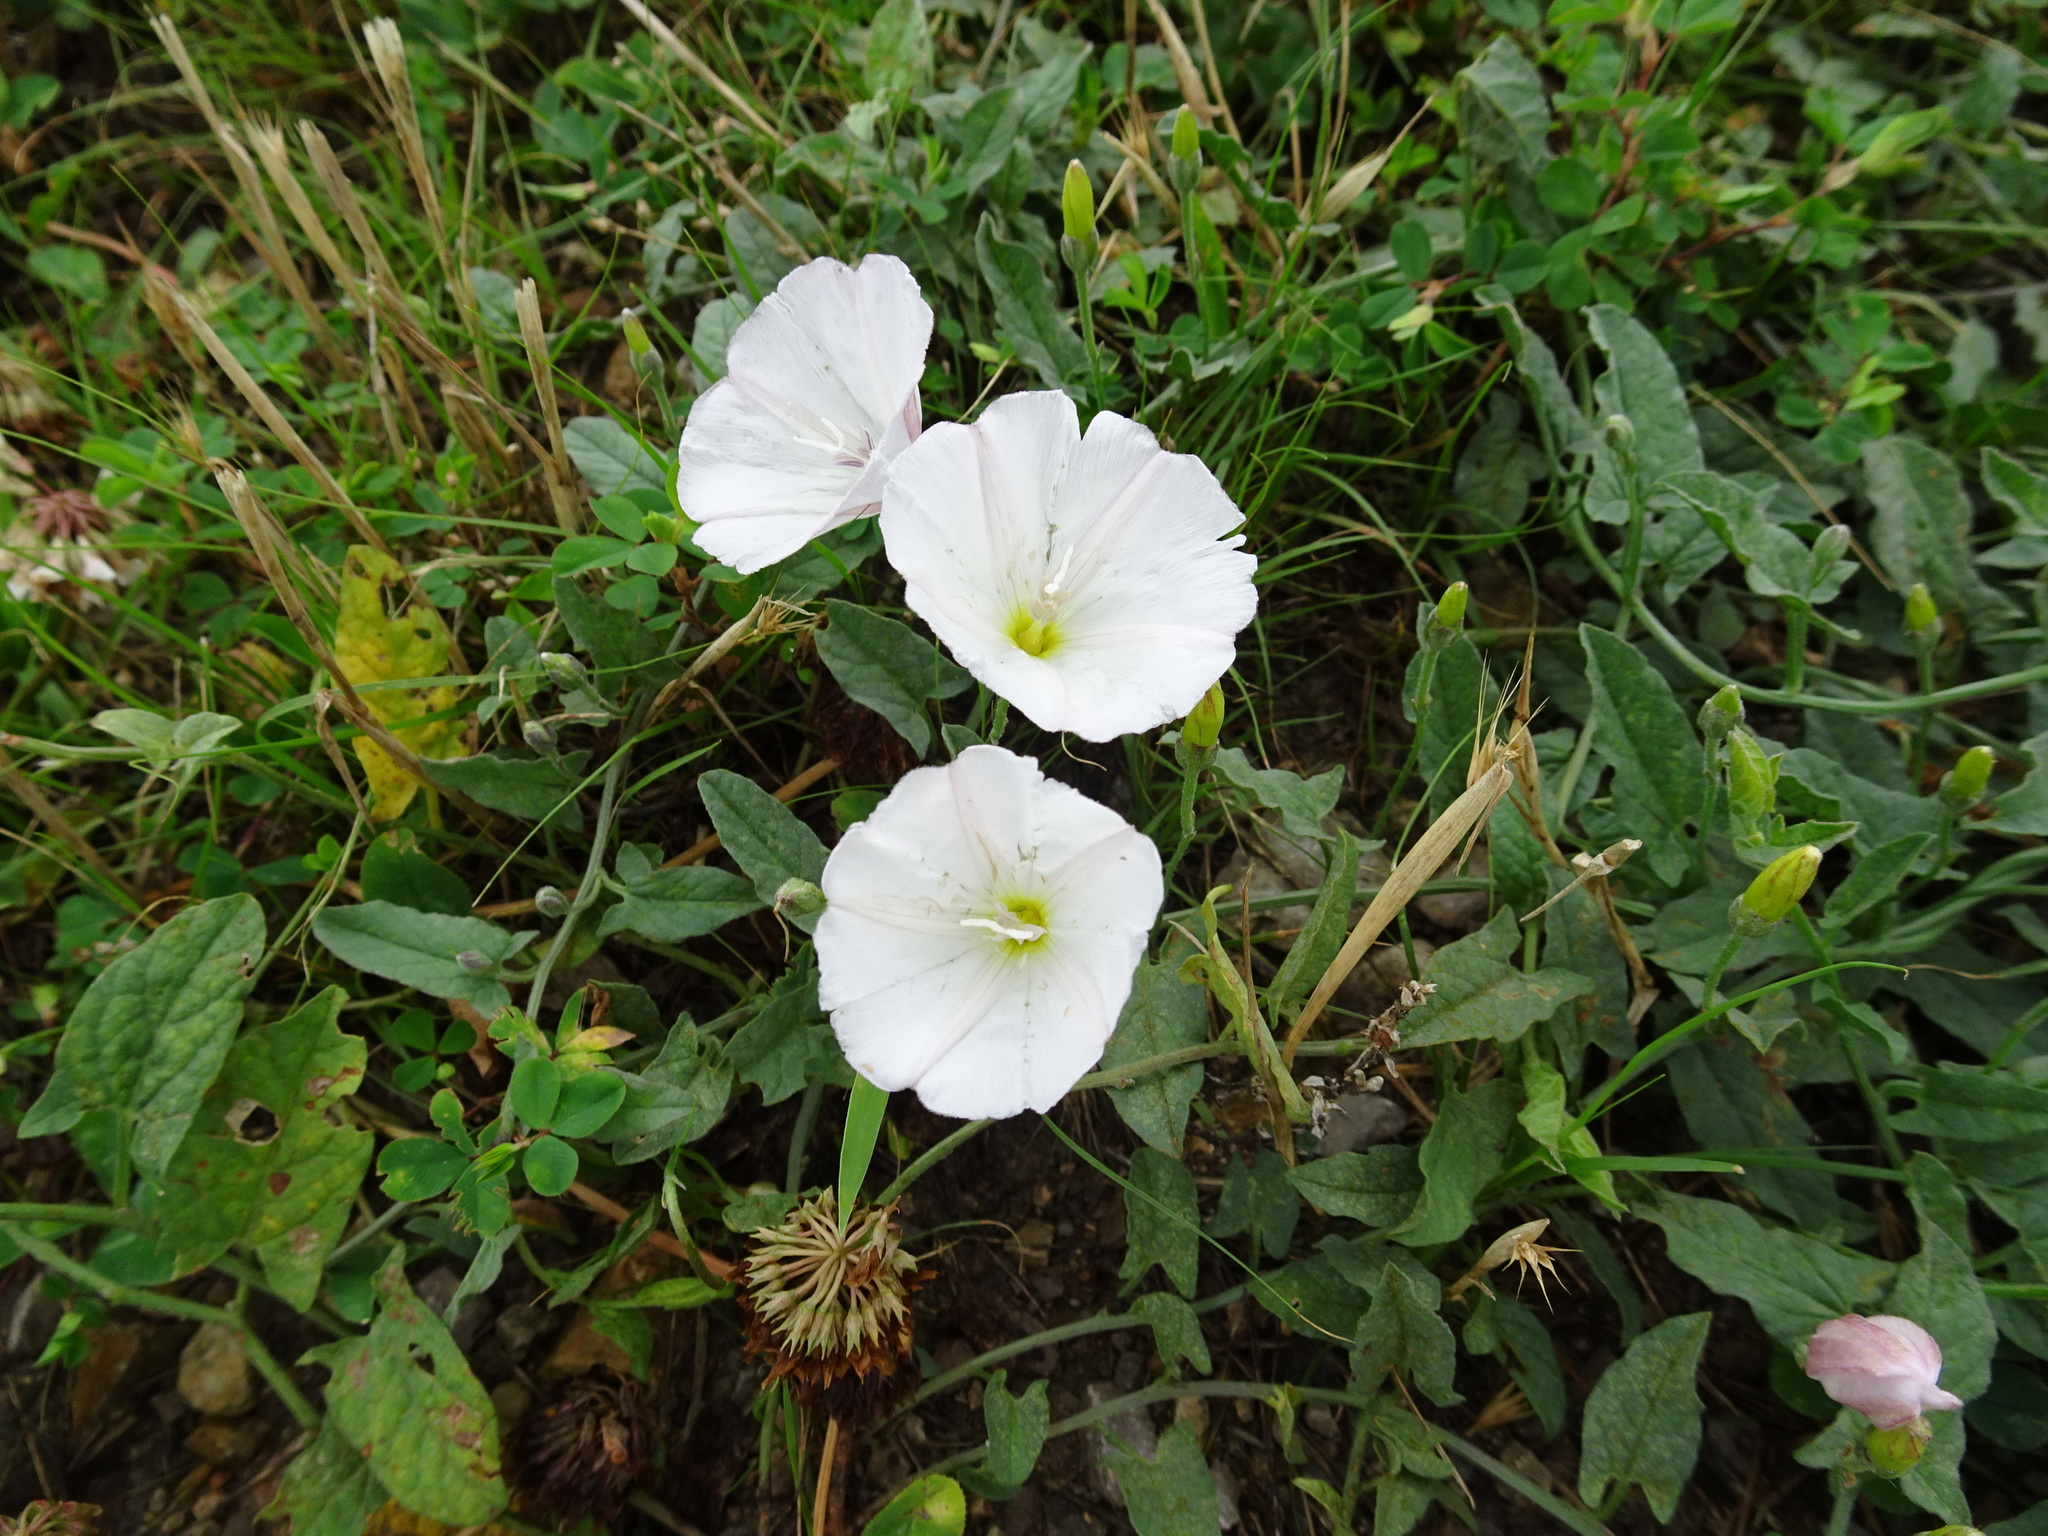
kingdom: Plantae
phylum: Tracheophyta
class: Magnoliopsida
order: Solanales
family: Convolvulaceae
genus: Convolvulus
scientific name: Convolvulus arvensis
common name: Field bindweed
